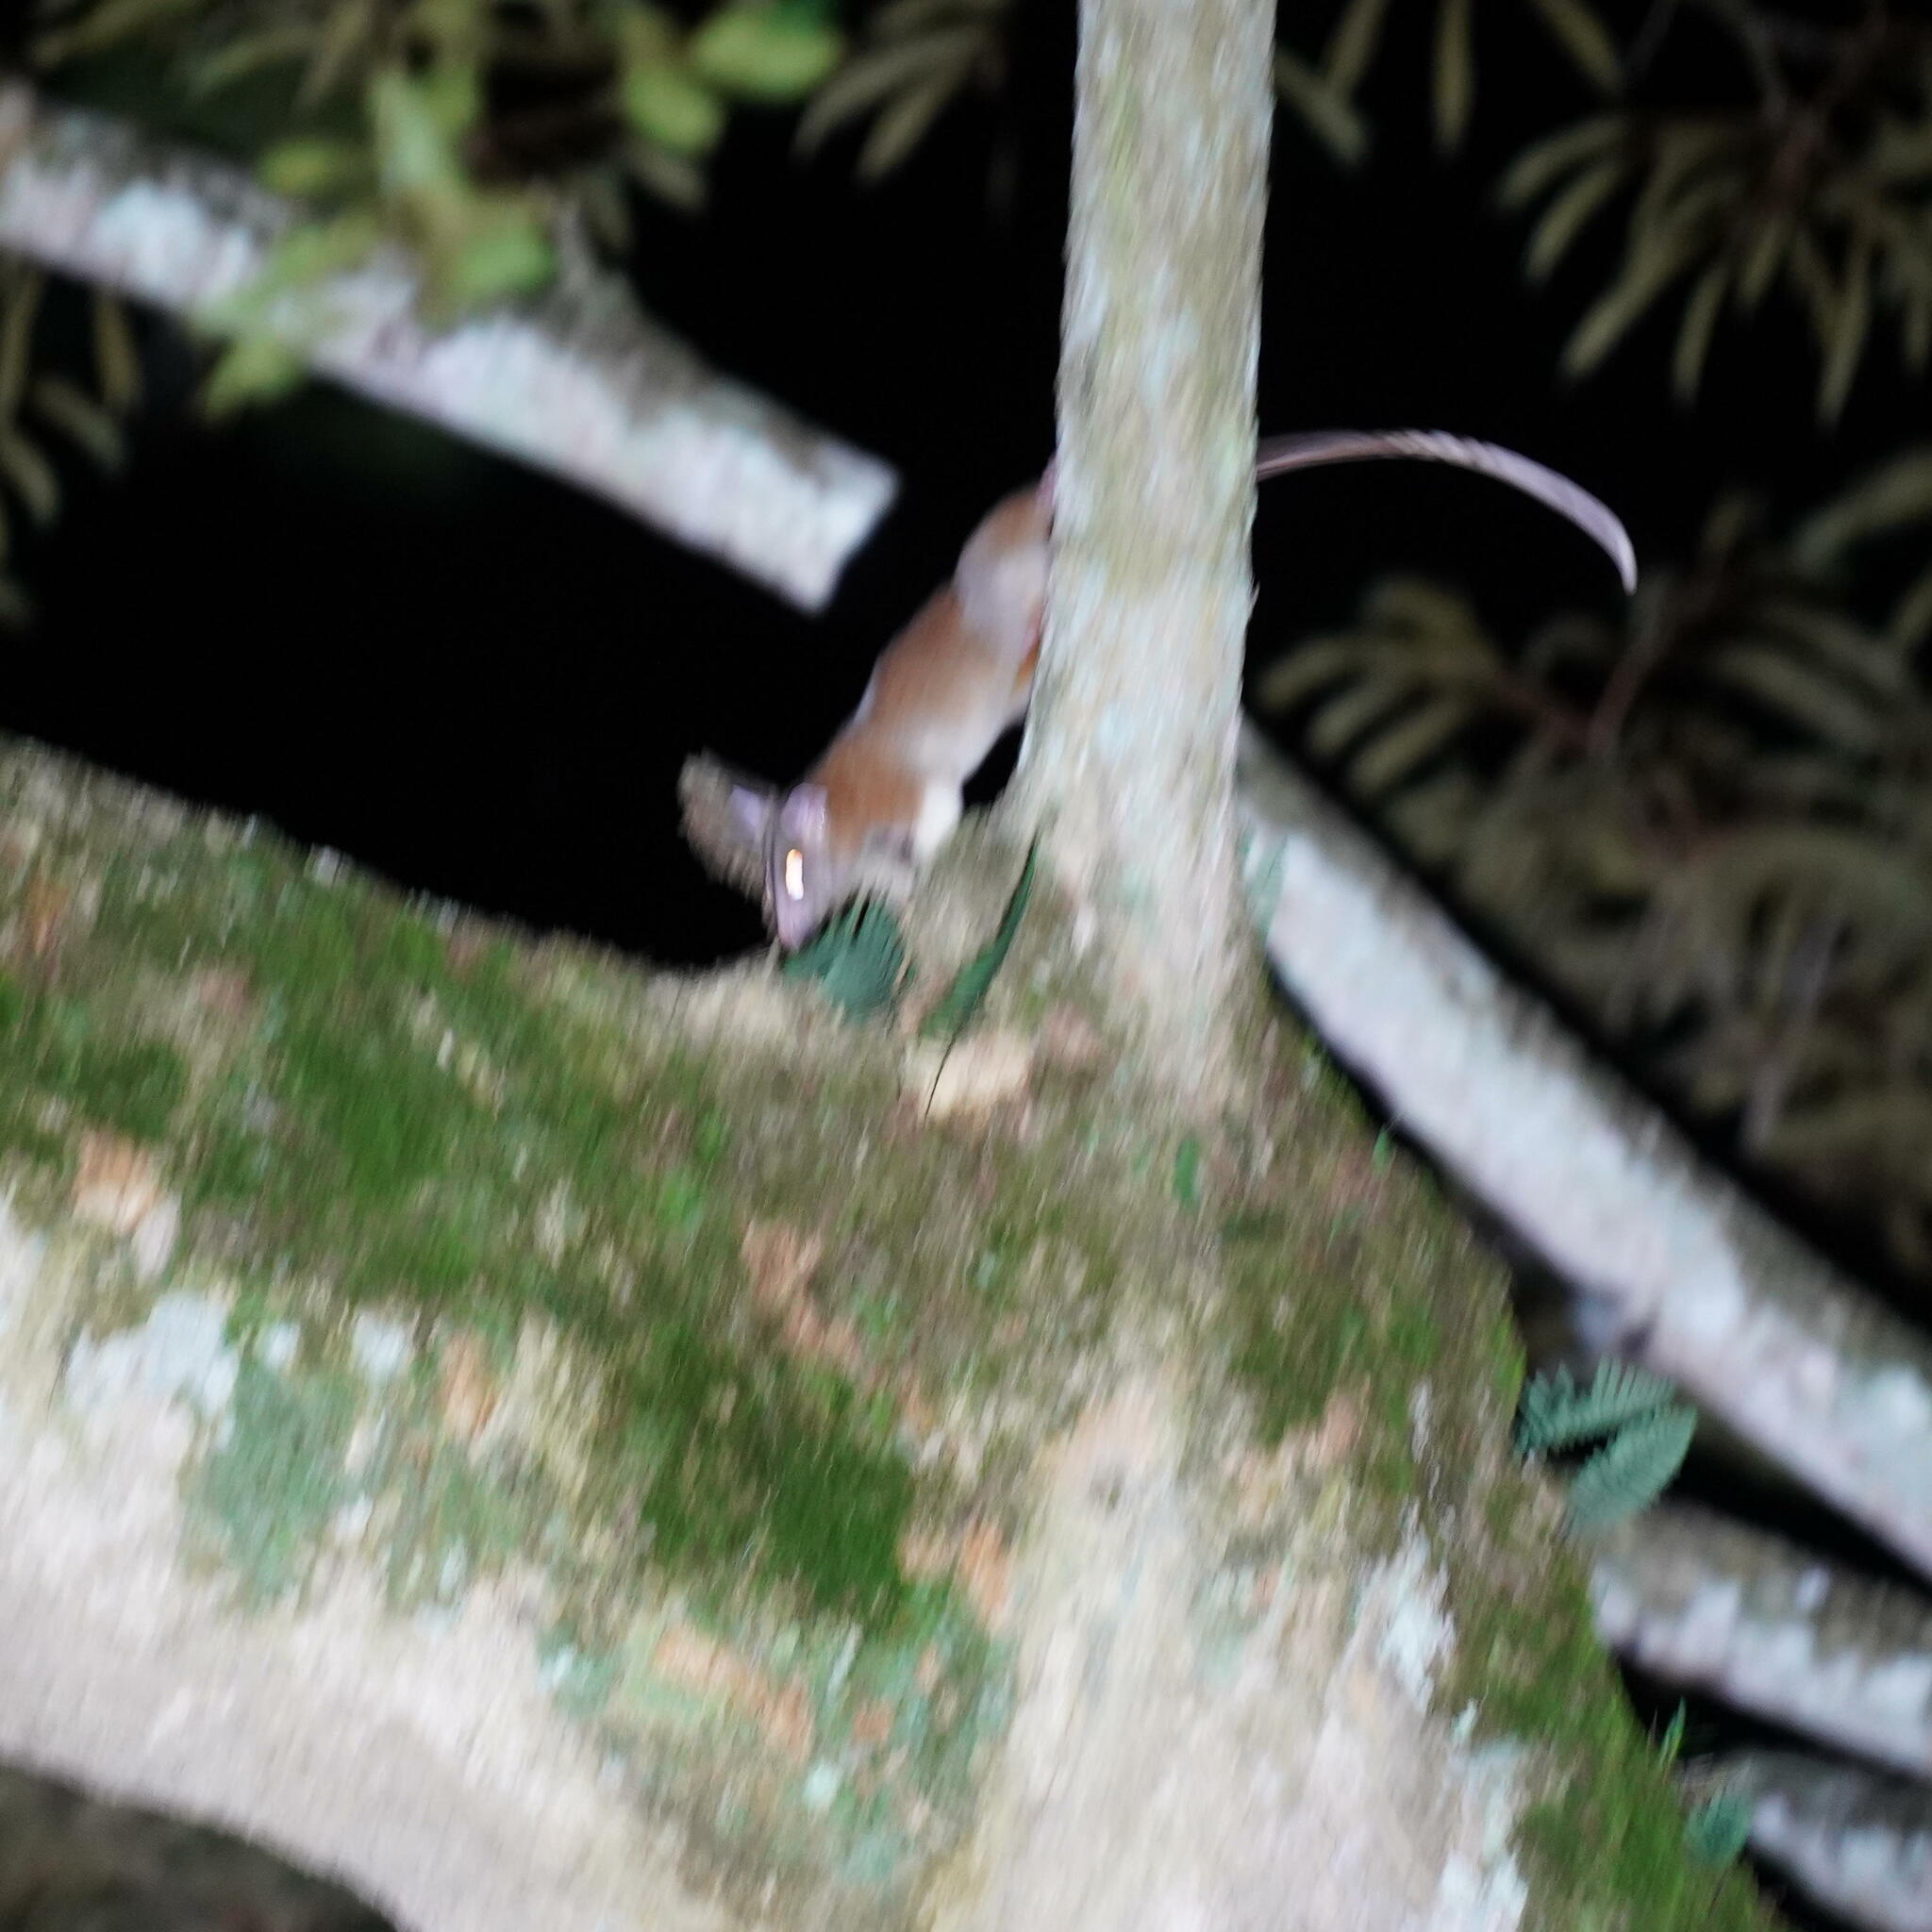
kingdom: Animalia
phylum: Chordata
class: Mammalia
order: Didelphimorphia
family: Didelphidae
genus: Caluromys
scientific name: Caluromys derbianus
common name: Derby's woolly opossum
